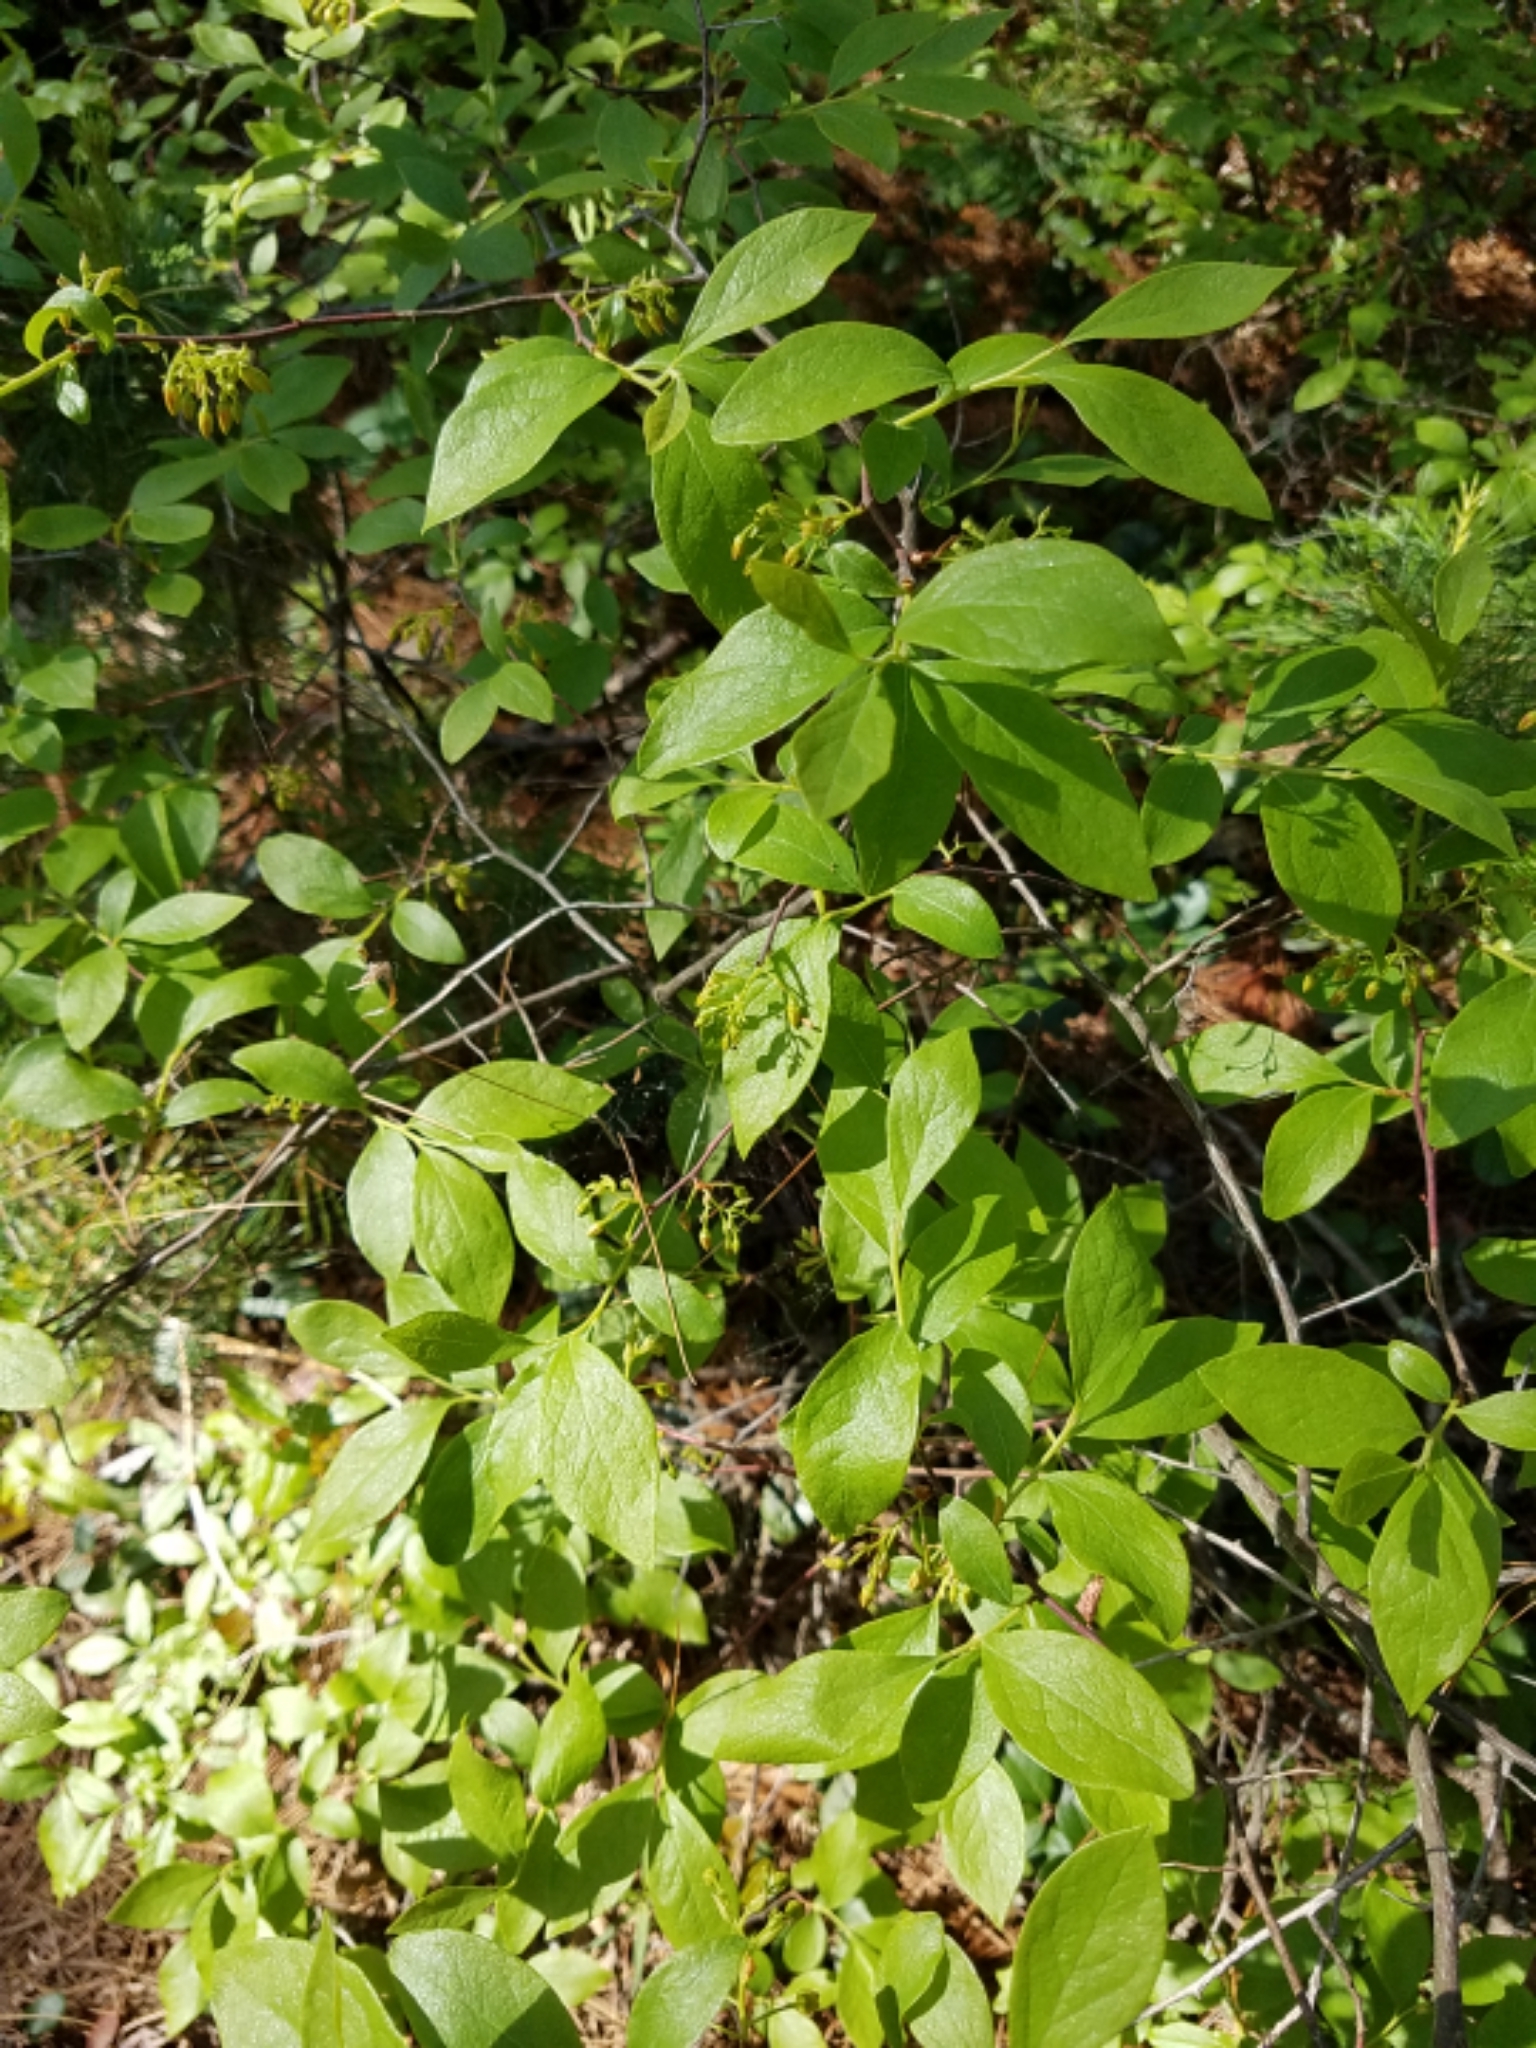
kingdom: Plantae
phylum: Tracheophyta
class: Magnoliopsida
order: Ericales
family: Ericaceae
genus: Gaylussacia
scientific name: Gaylussacia baccata
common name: Black huckleberry
